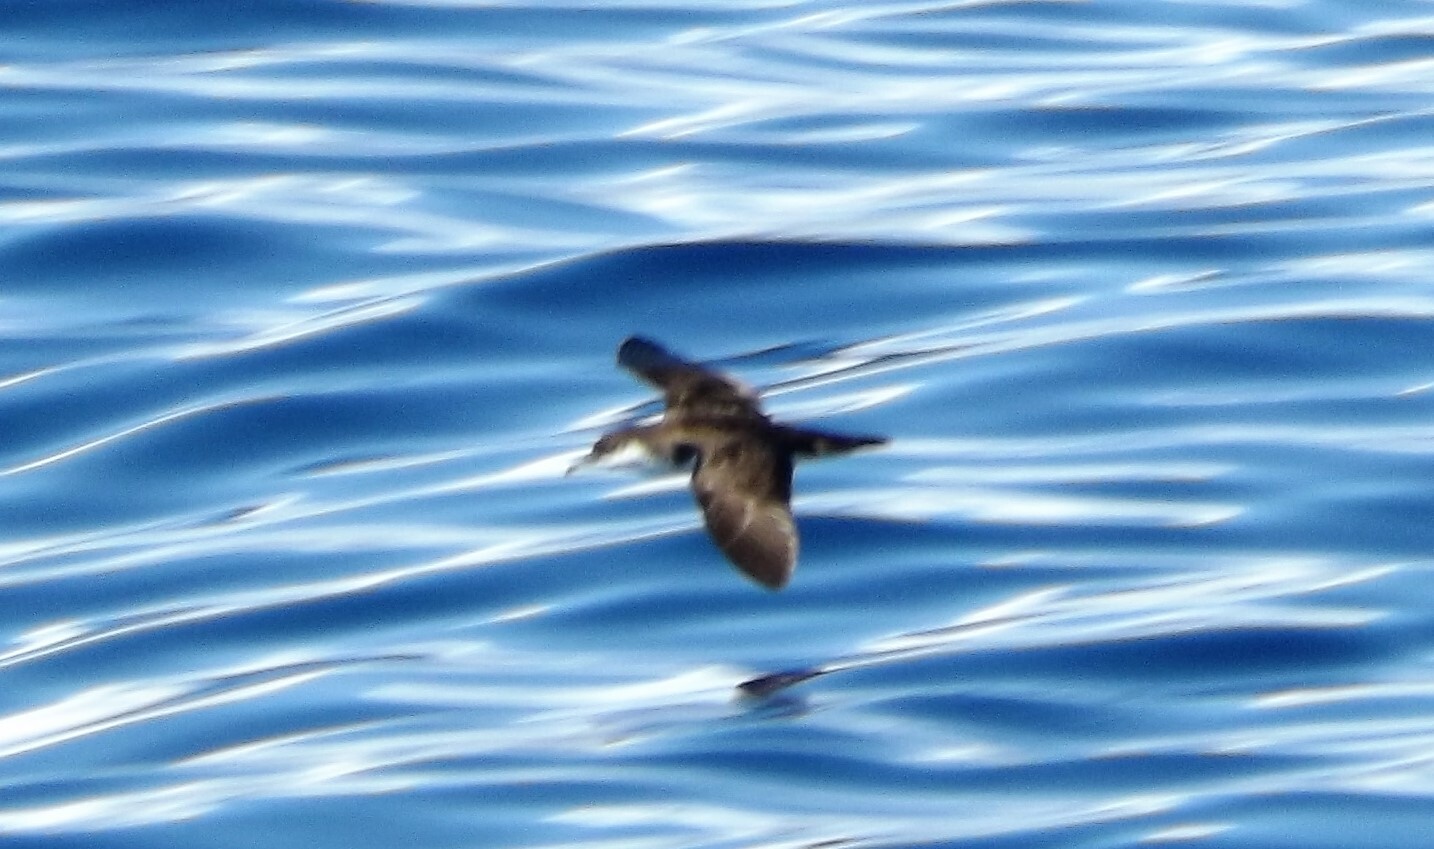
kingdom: Animalia
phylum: Chordata
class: Aves
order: Procellariiformes
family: Procellariidae
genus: Puffinus
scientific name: Puffinus bailloni
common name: Tropical shearwater
